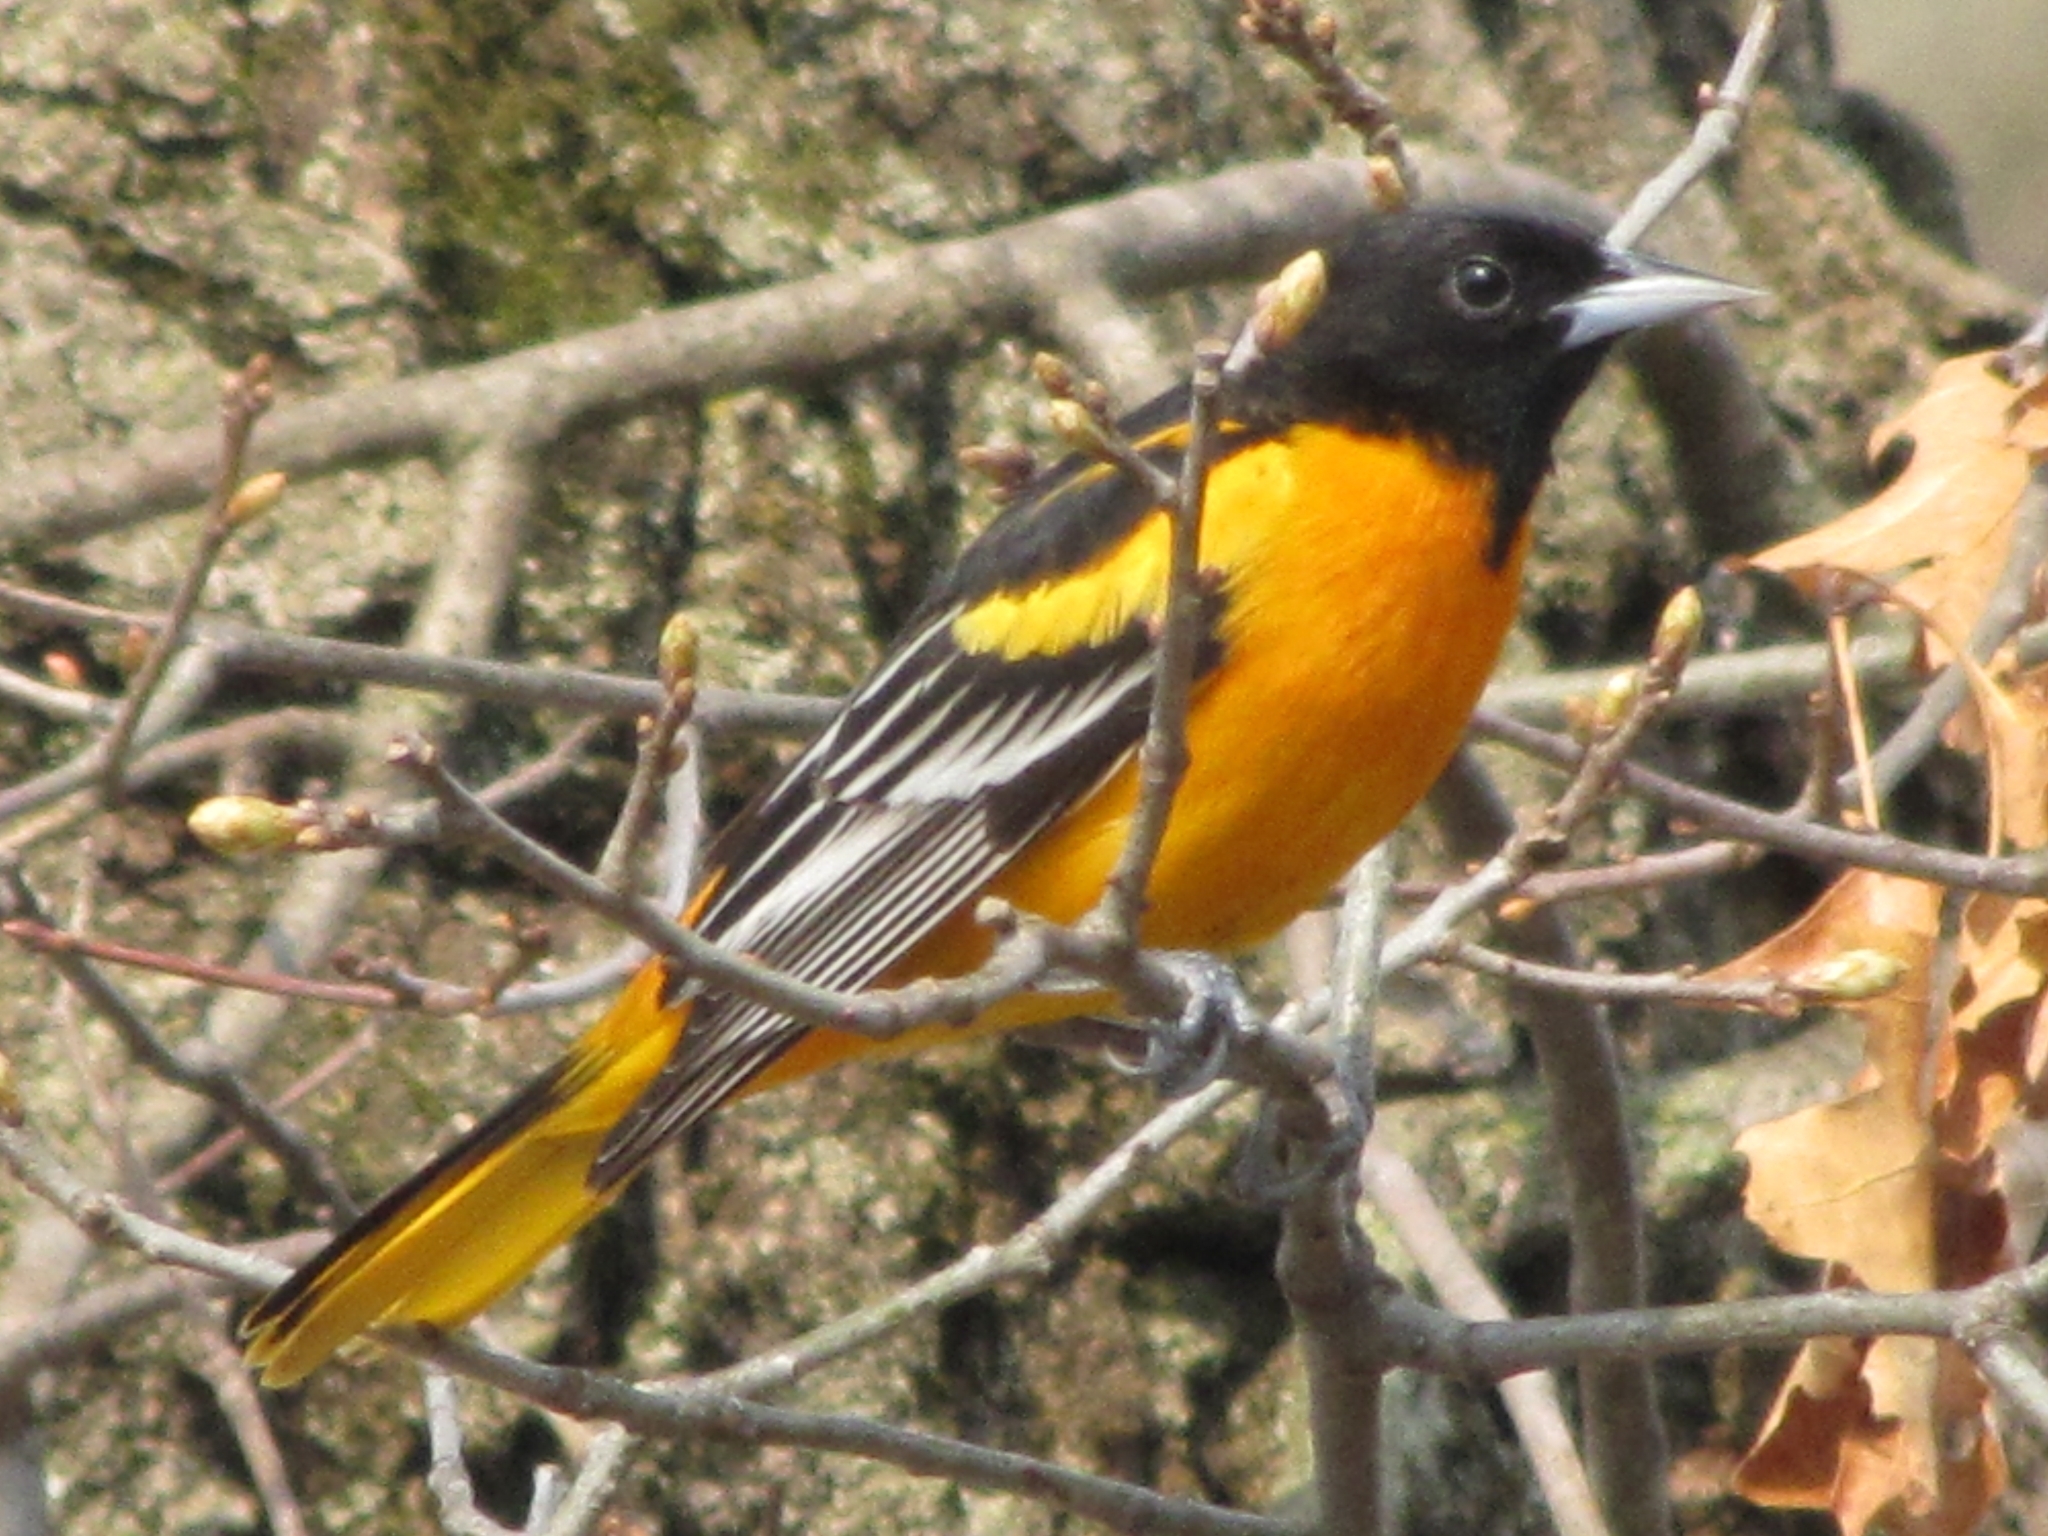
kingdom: Animalia
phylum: Chordata
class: Aves
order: Passeriformes
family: Icteridae
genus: Icterus
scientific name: Icterus galbula
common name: Baltimore oriole
